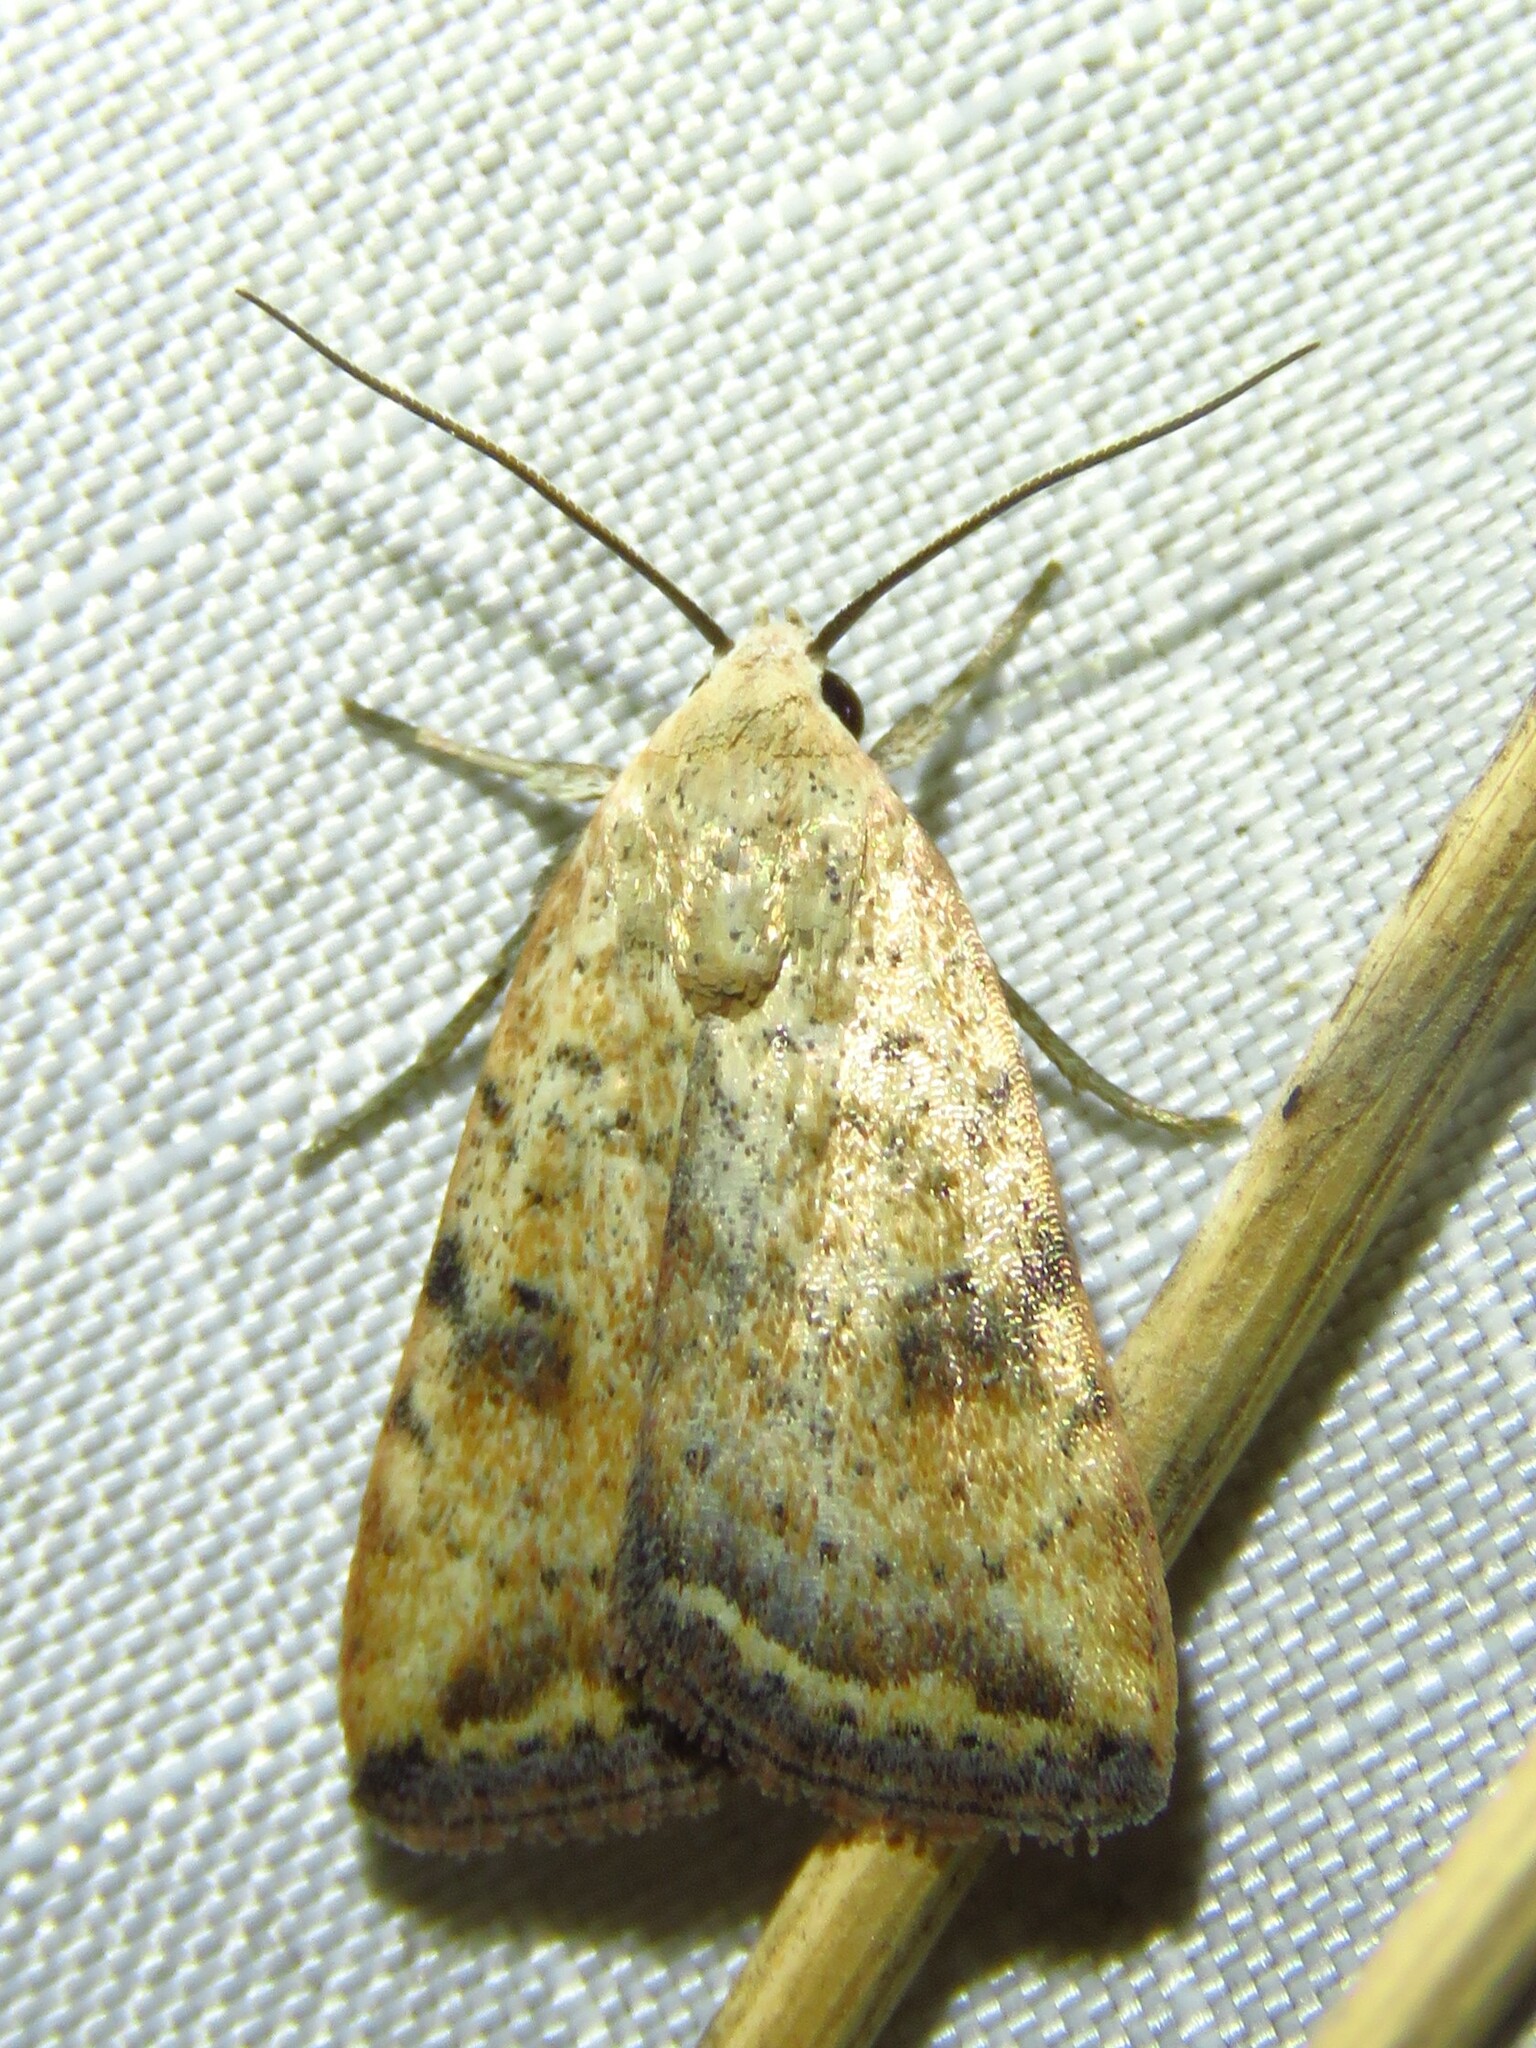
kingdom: Animalia
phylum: Arthropoda
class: Insecta
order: Lepidoptera
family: Noctuidae
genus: Micrathetis
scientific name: Micrathetis triplex
